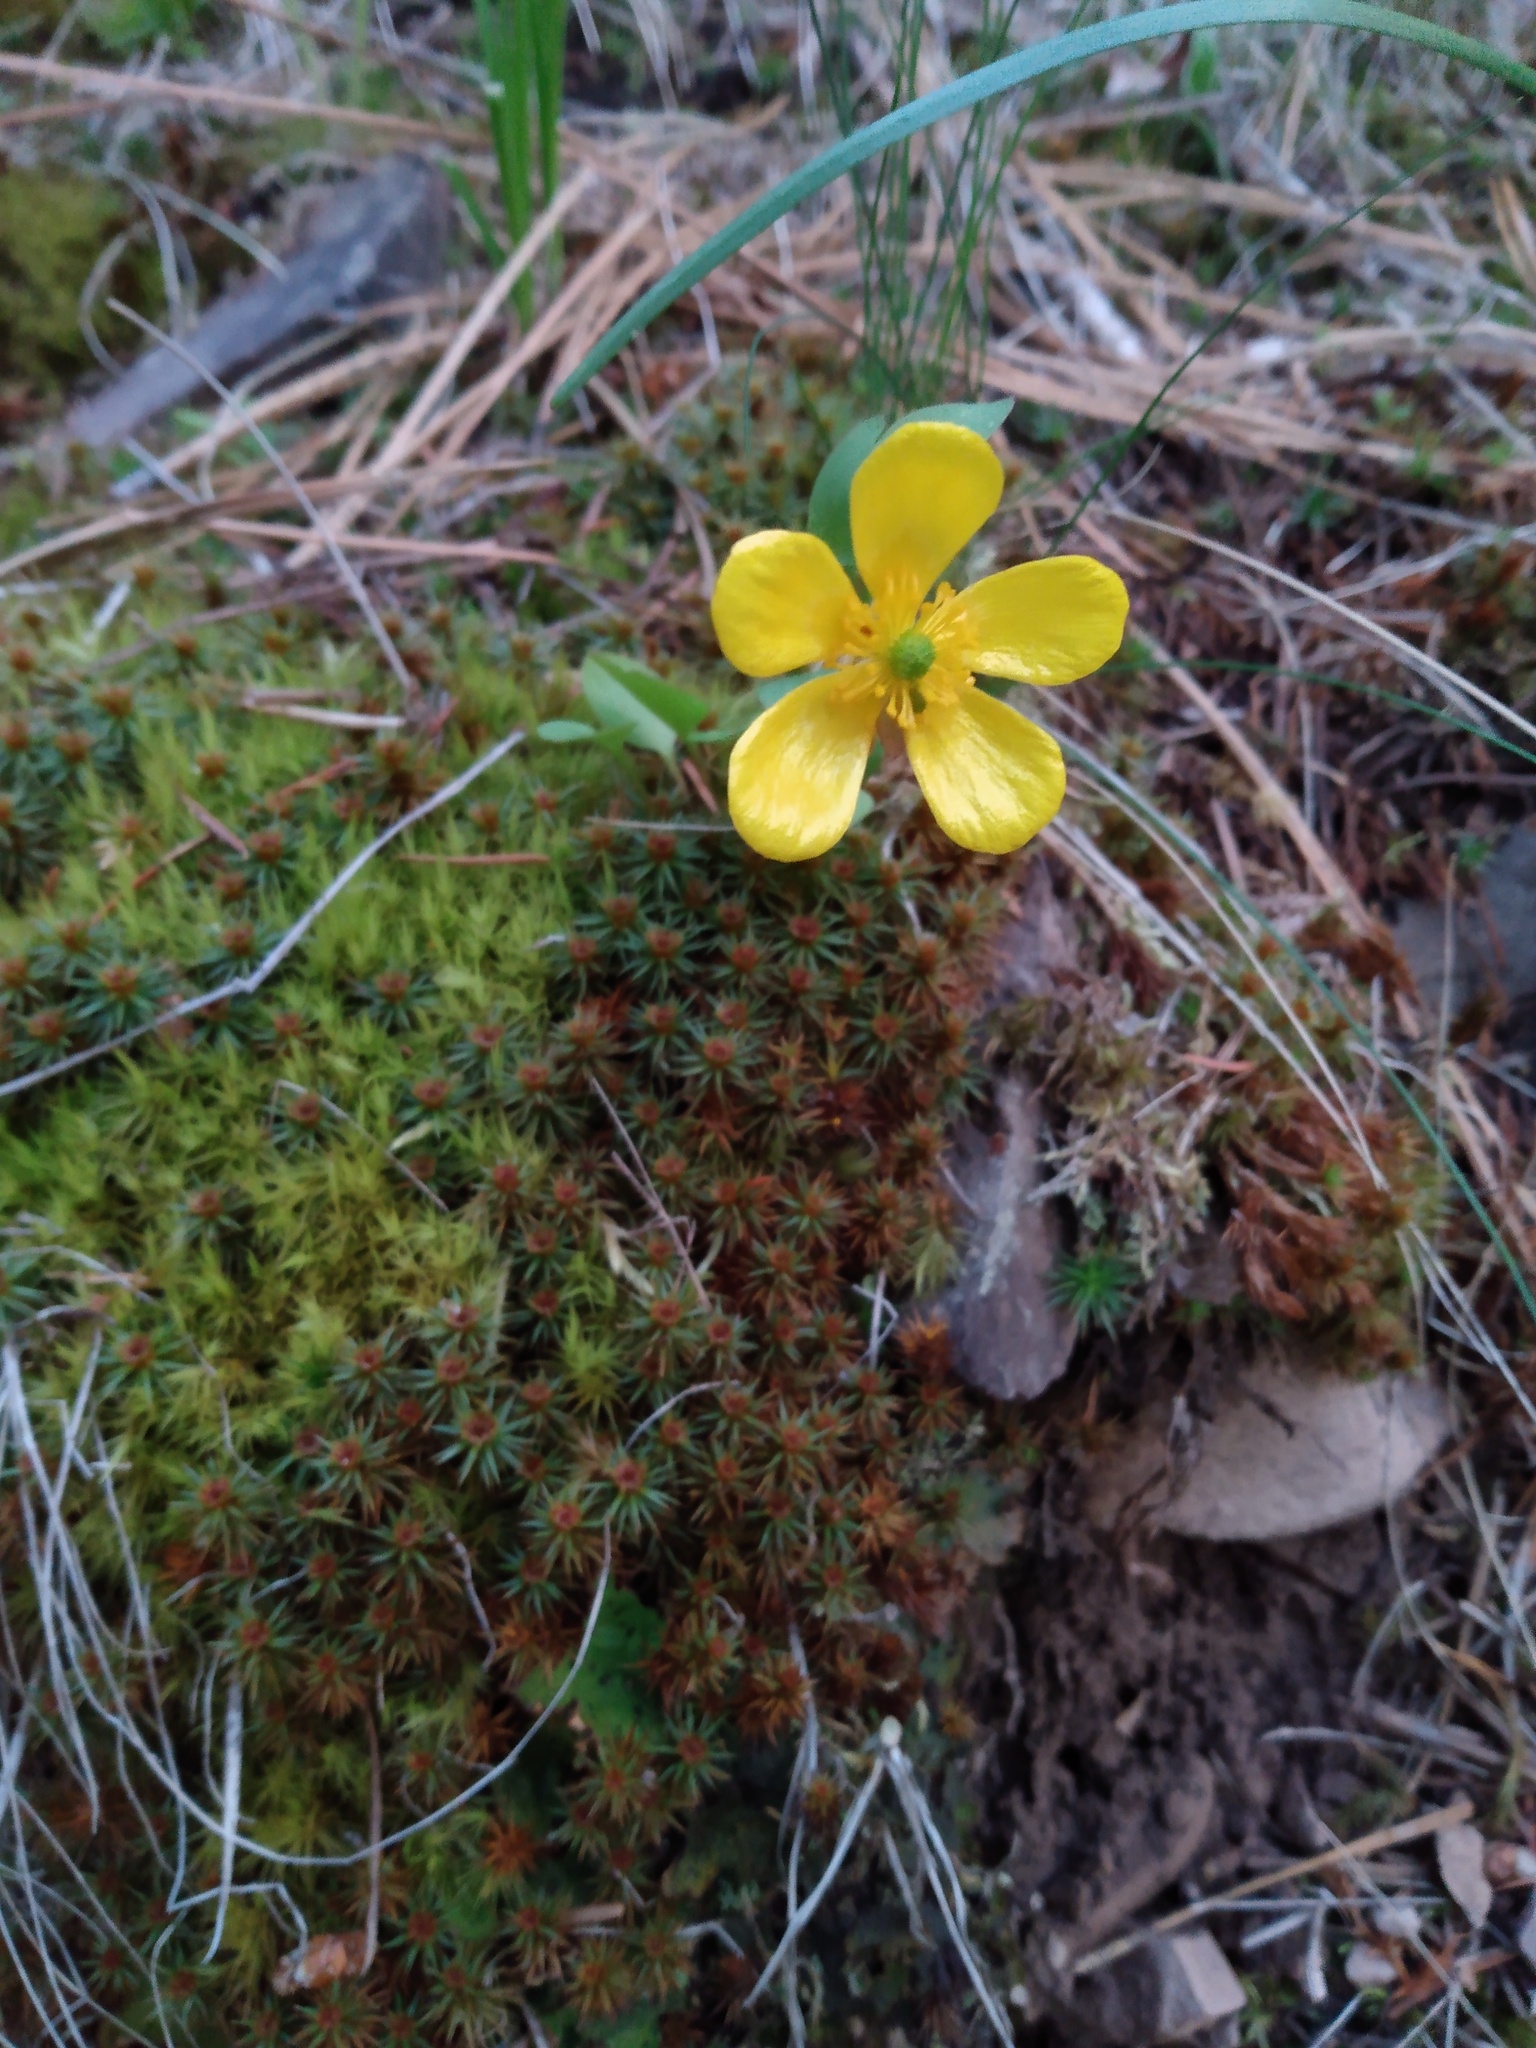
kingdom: Plantae
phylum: Tracheophyta
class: Magnoliopsida
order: Ranunculales
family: Ranunculaceae
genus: Ranunculus
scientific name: Ranunculus glaberrimus
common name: Sagebrush buttercup
